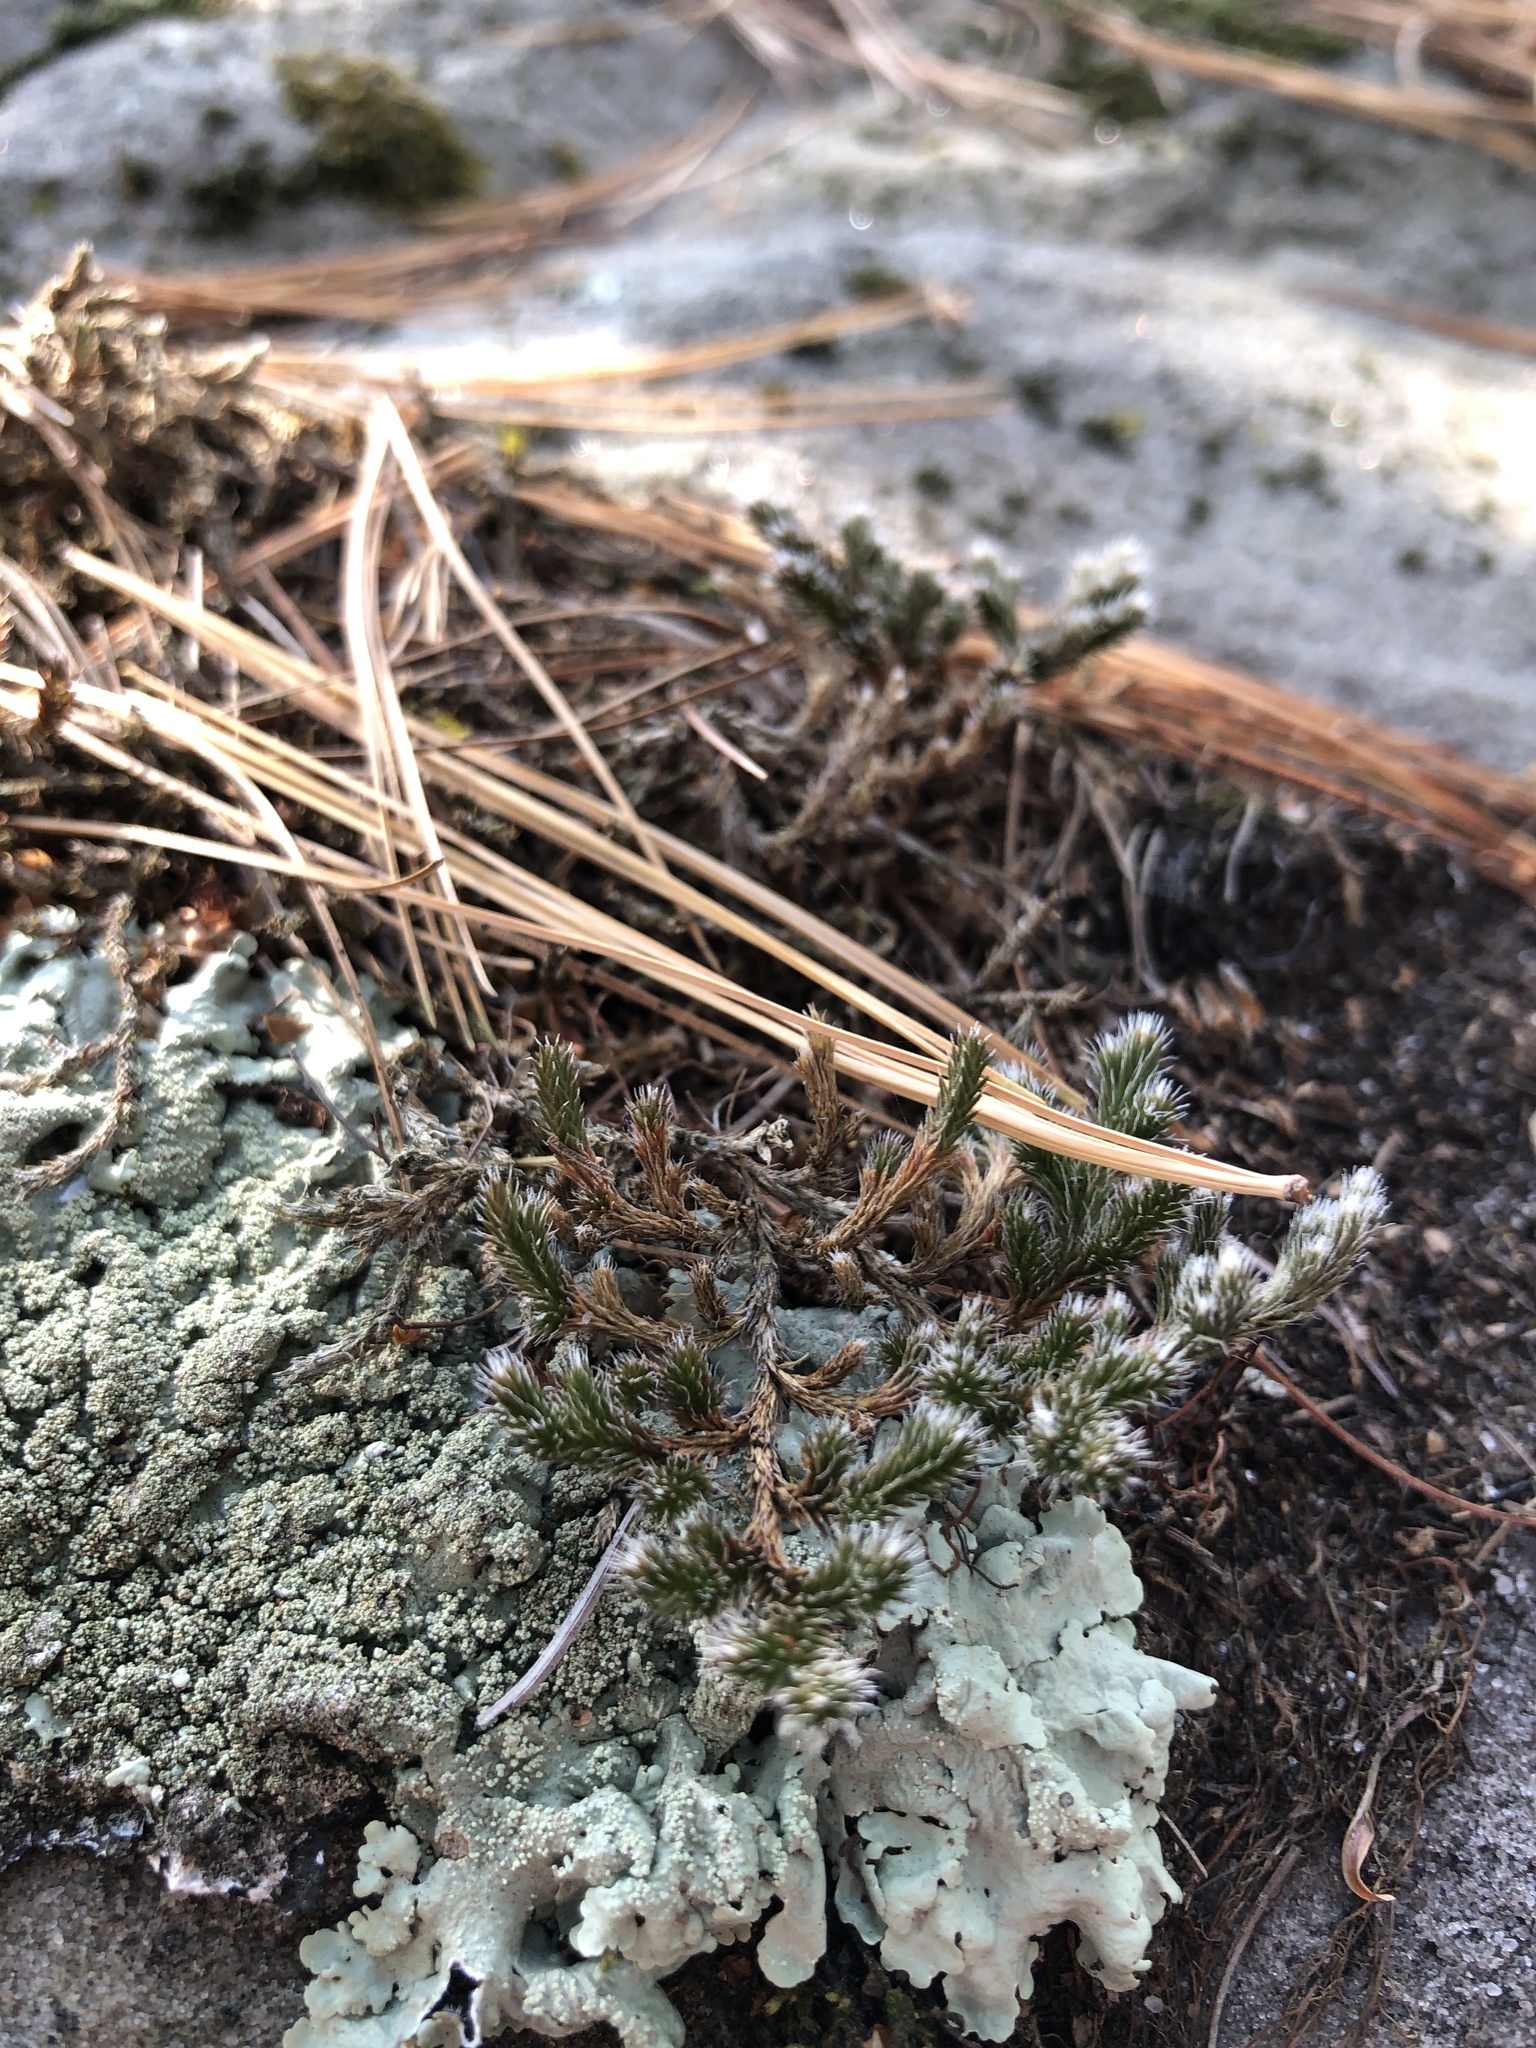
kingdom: Plantae
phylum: Tracheophyta
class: Lycopodiopsida
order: Selaginellales
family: Selaginellaceae
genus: Selaginella
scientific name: Selaginella rupestris
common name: Dwarf spikemoss
